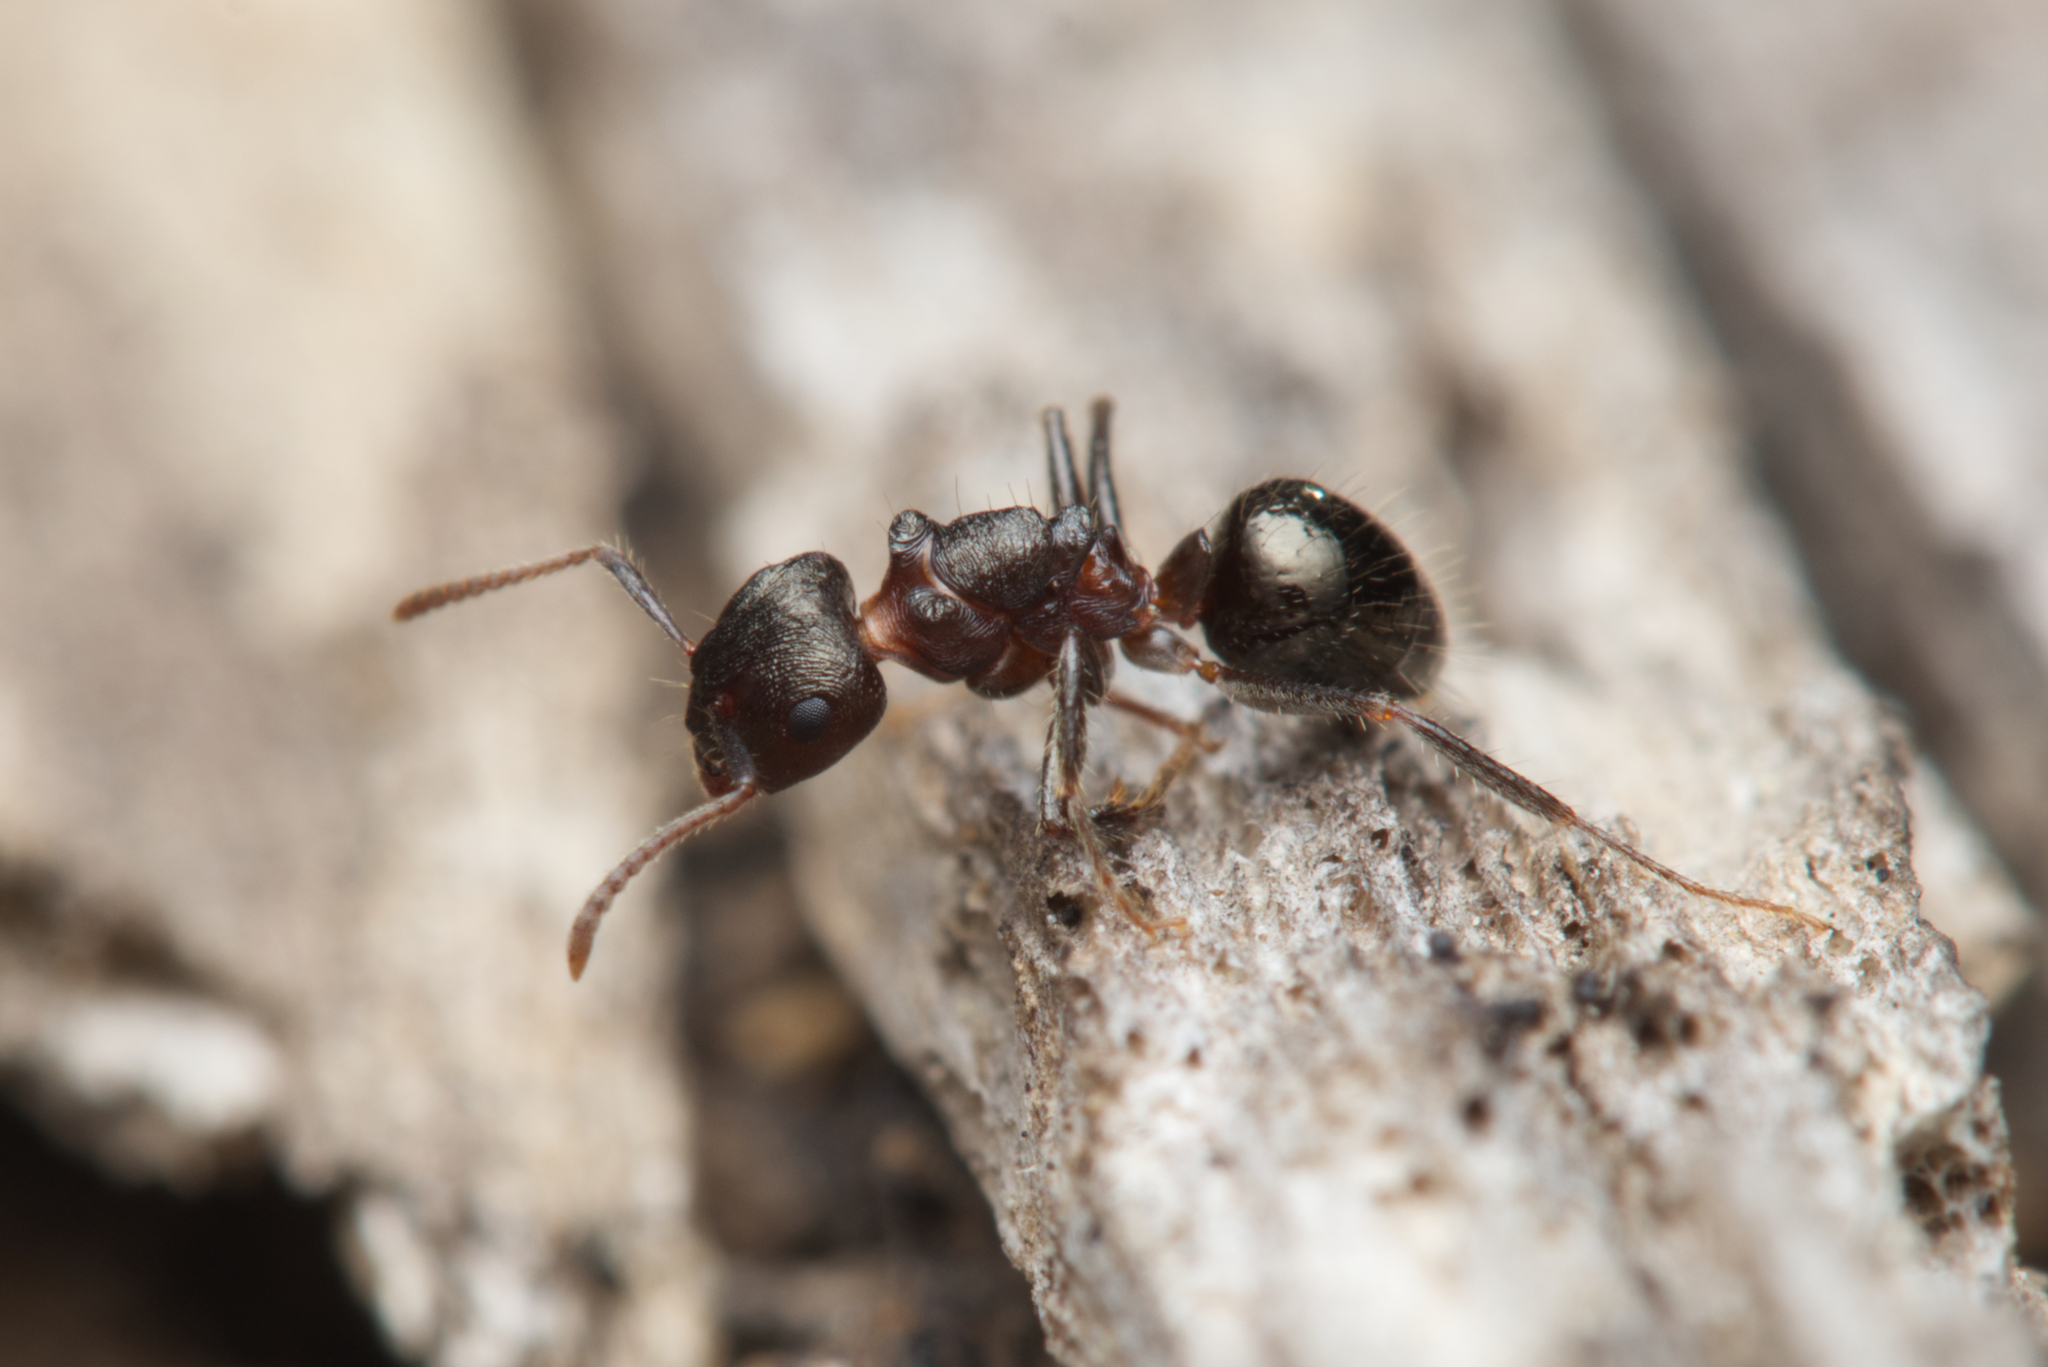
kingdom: Animalia
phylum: Arthropoda
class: Insecta
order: Hymenoptera
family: Formicidae
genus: Notoncus
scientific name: Notoncus ectatommoides
